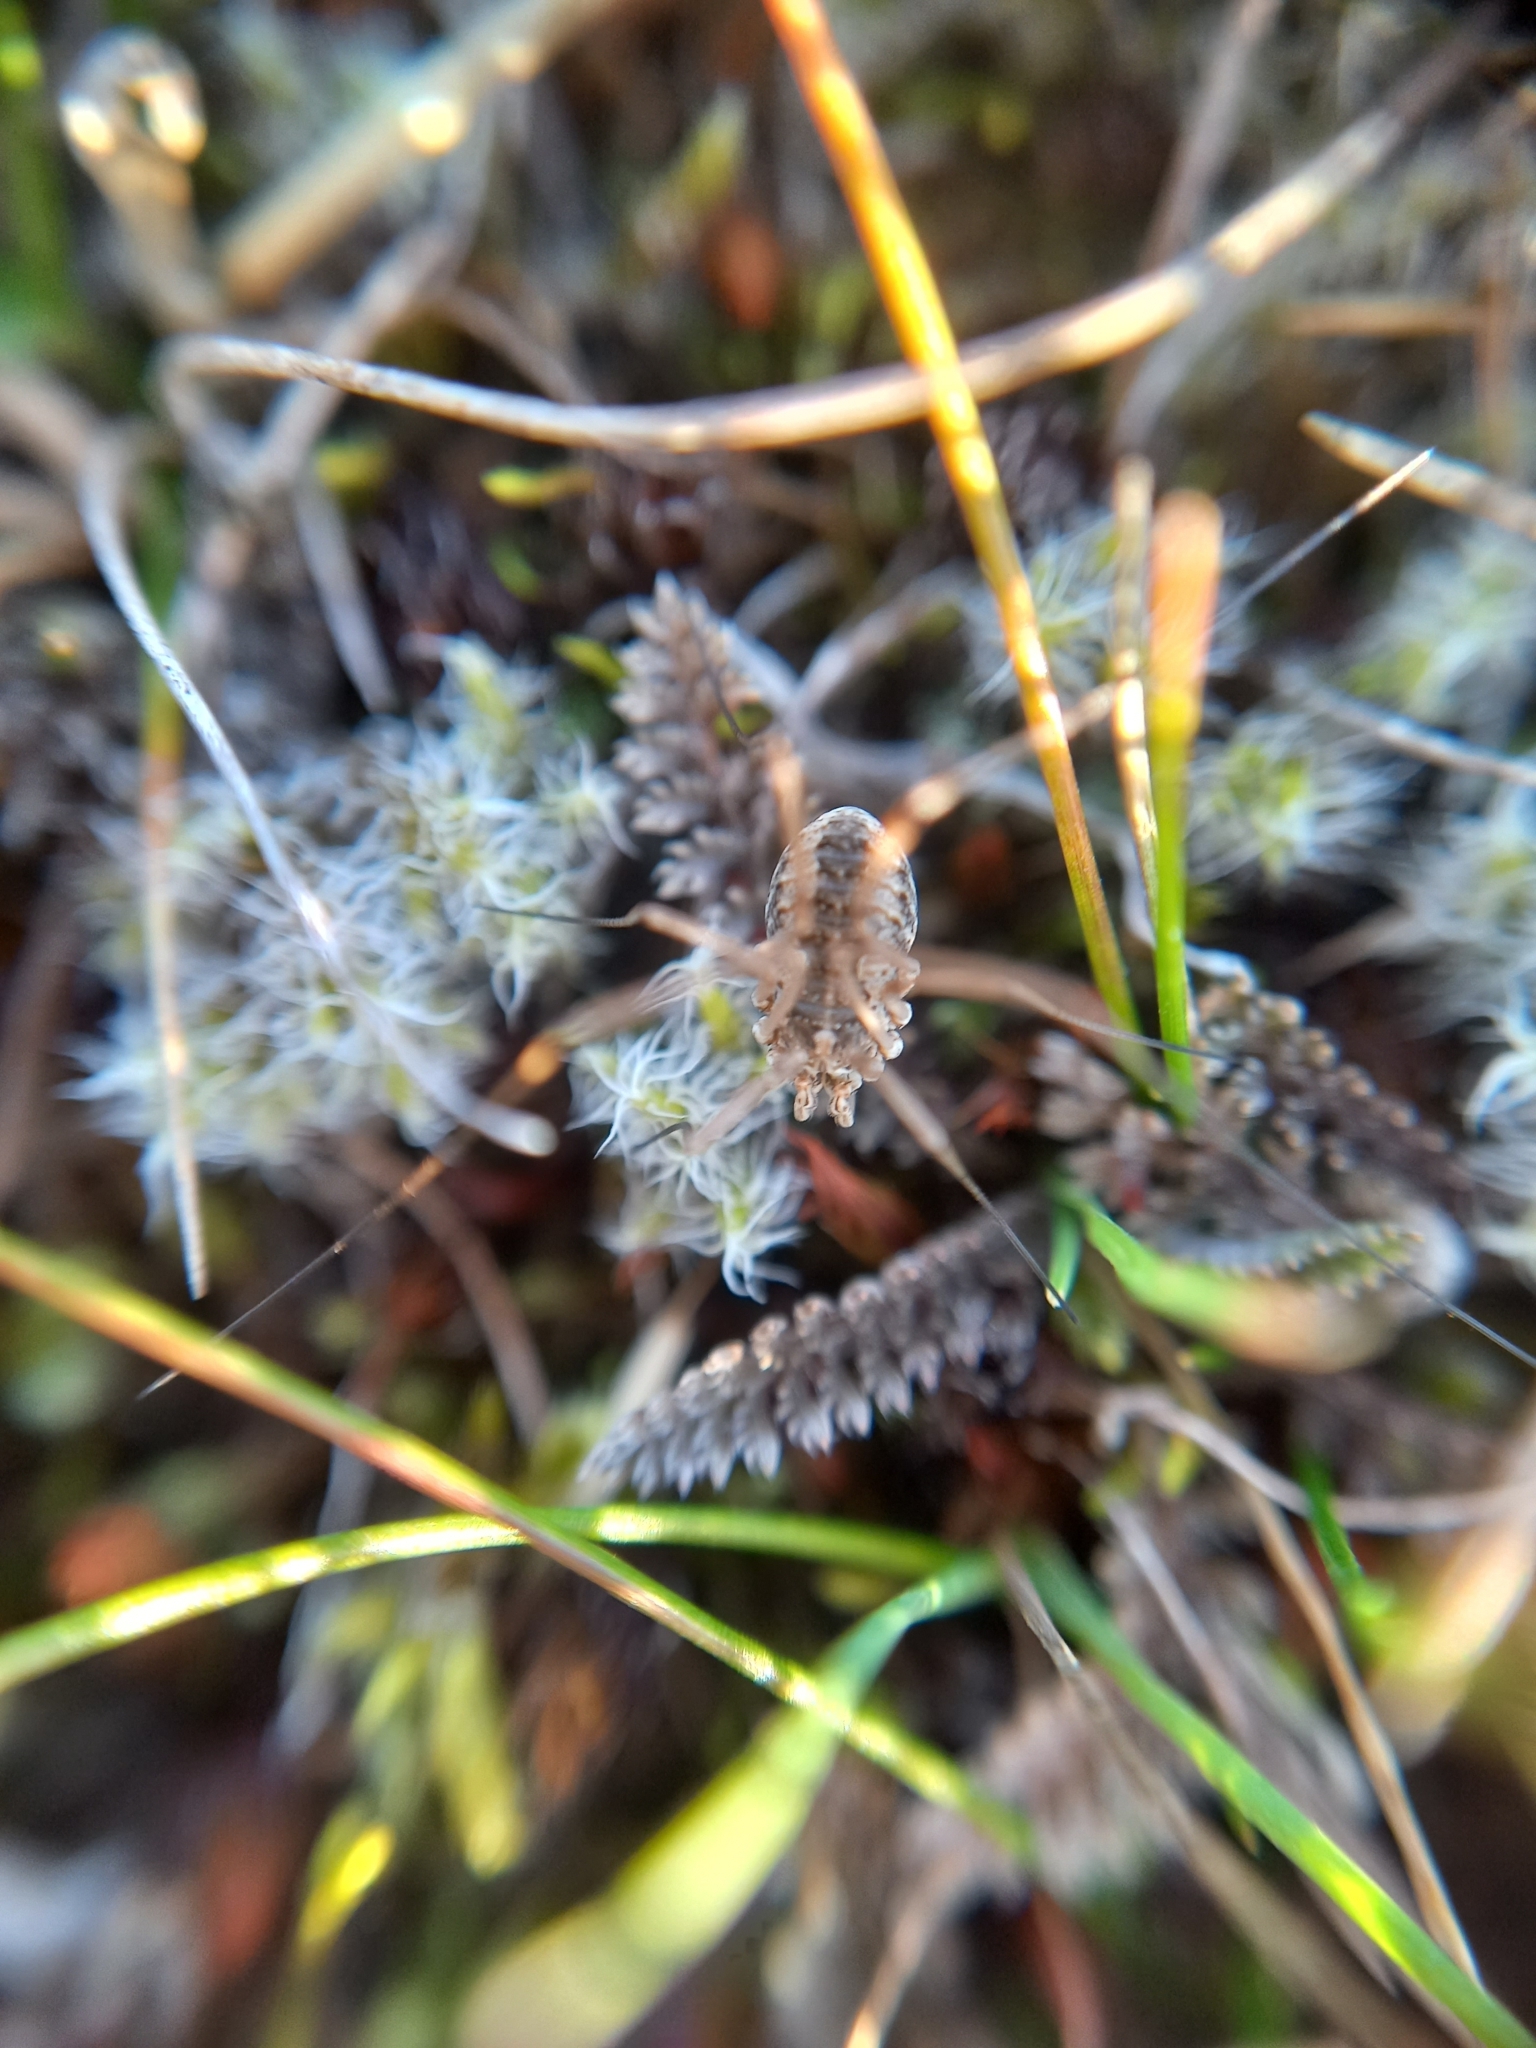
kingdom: Animalia
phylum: Arthropoda
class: Arachnida
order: Opiliones
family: Phalangiidae
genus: Phalangium
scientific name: Phalangium opilio
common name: Daddy longleg
